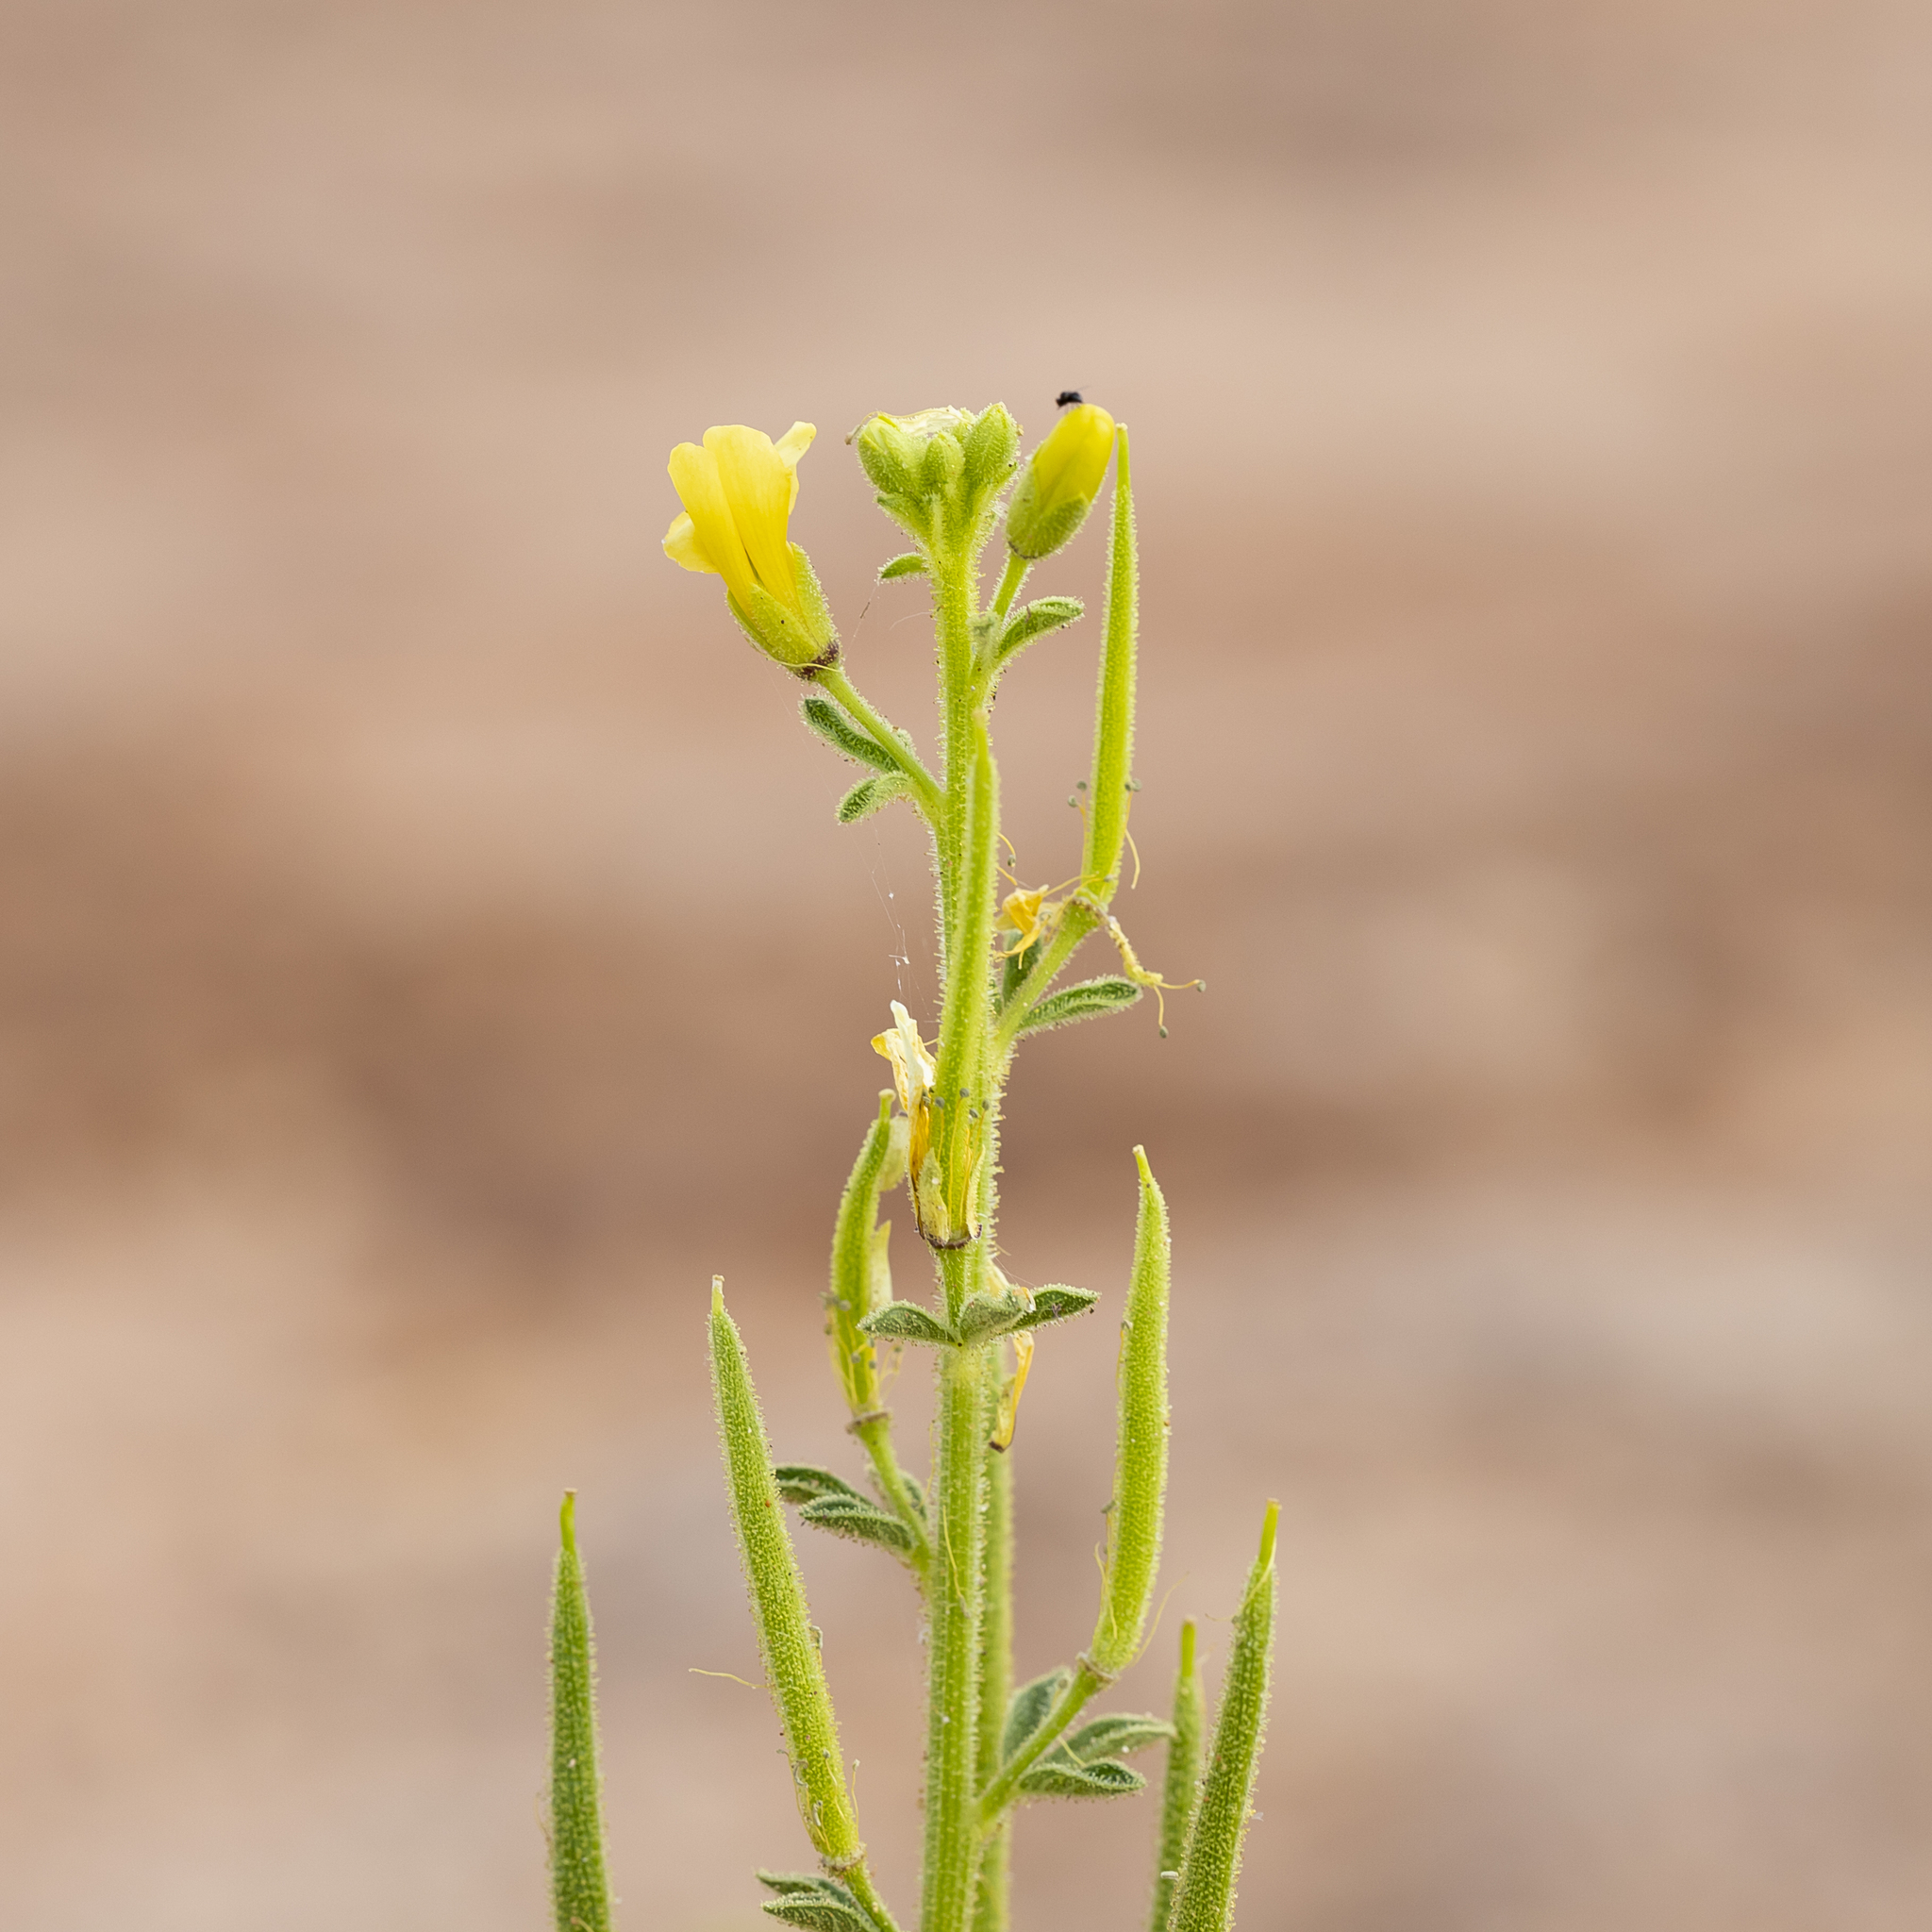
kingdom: Plantae
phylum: Tracheophyta
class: Magnoliopsida
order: Brassicales
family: Cleomaceae
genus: Arivela
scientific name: Arivela viscosa
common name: Asian spiderflower
